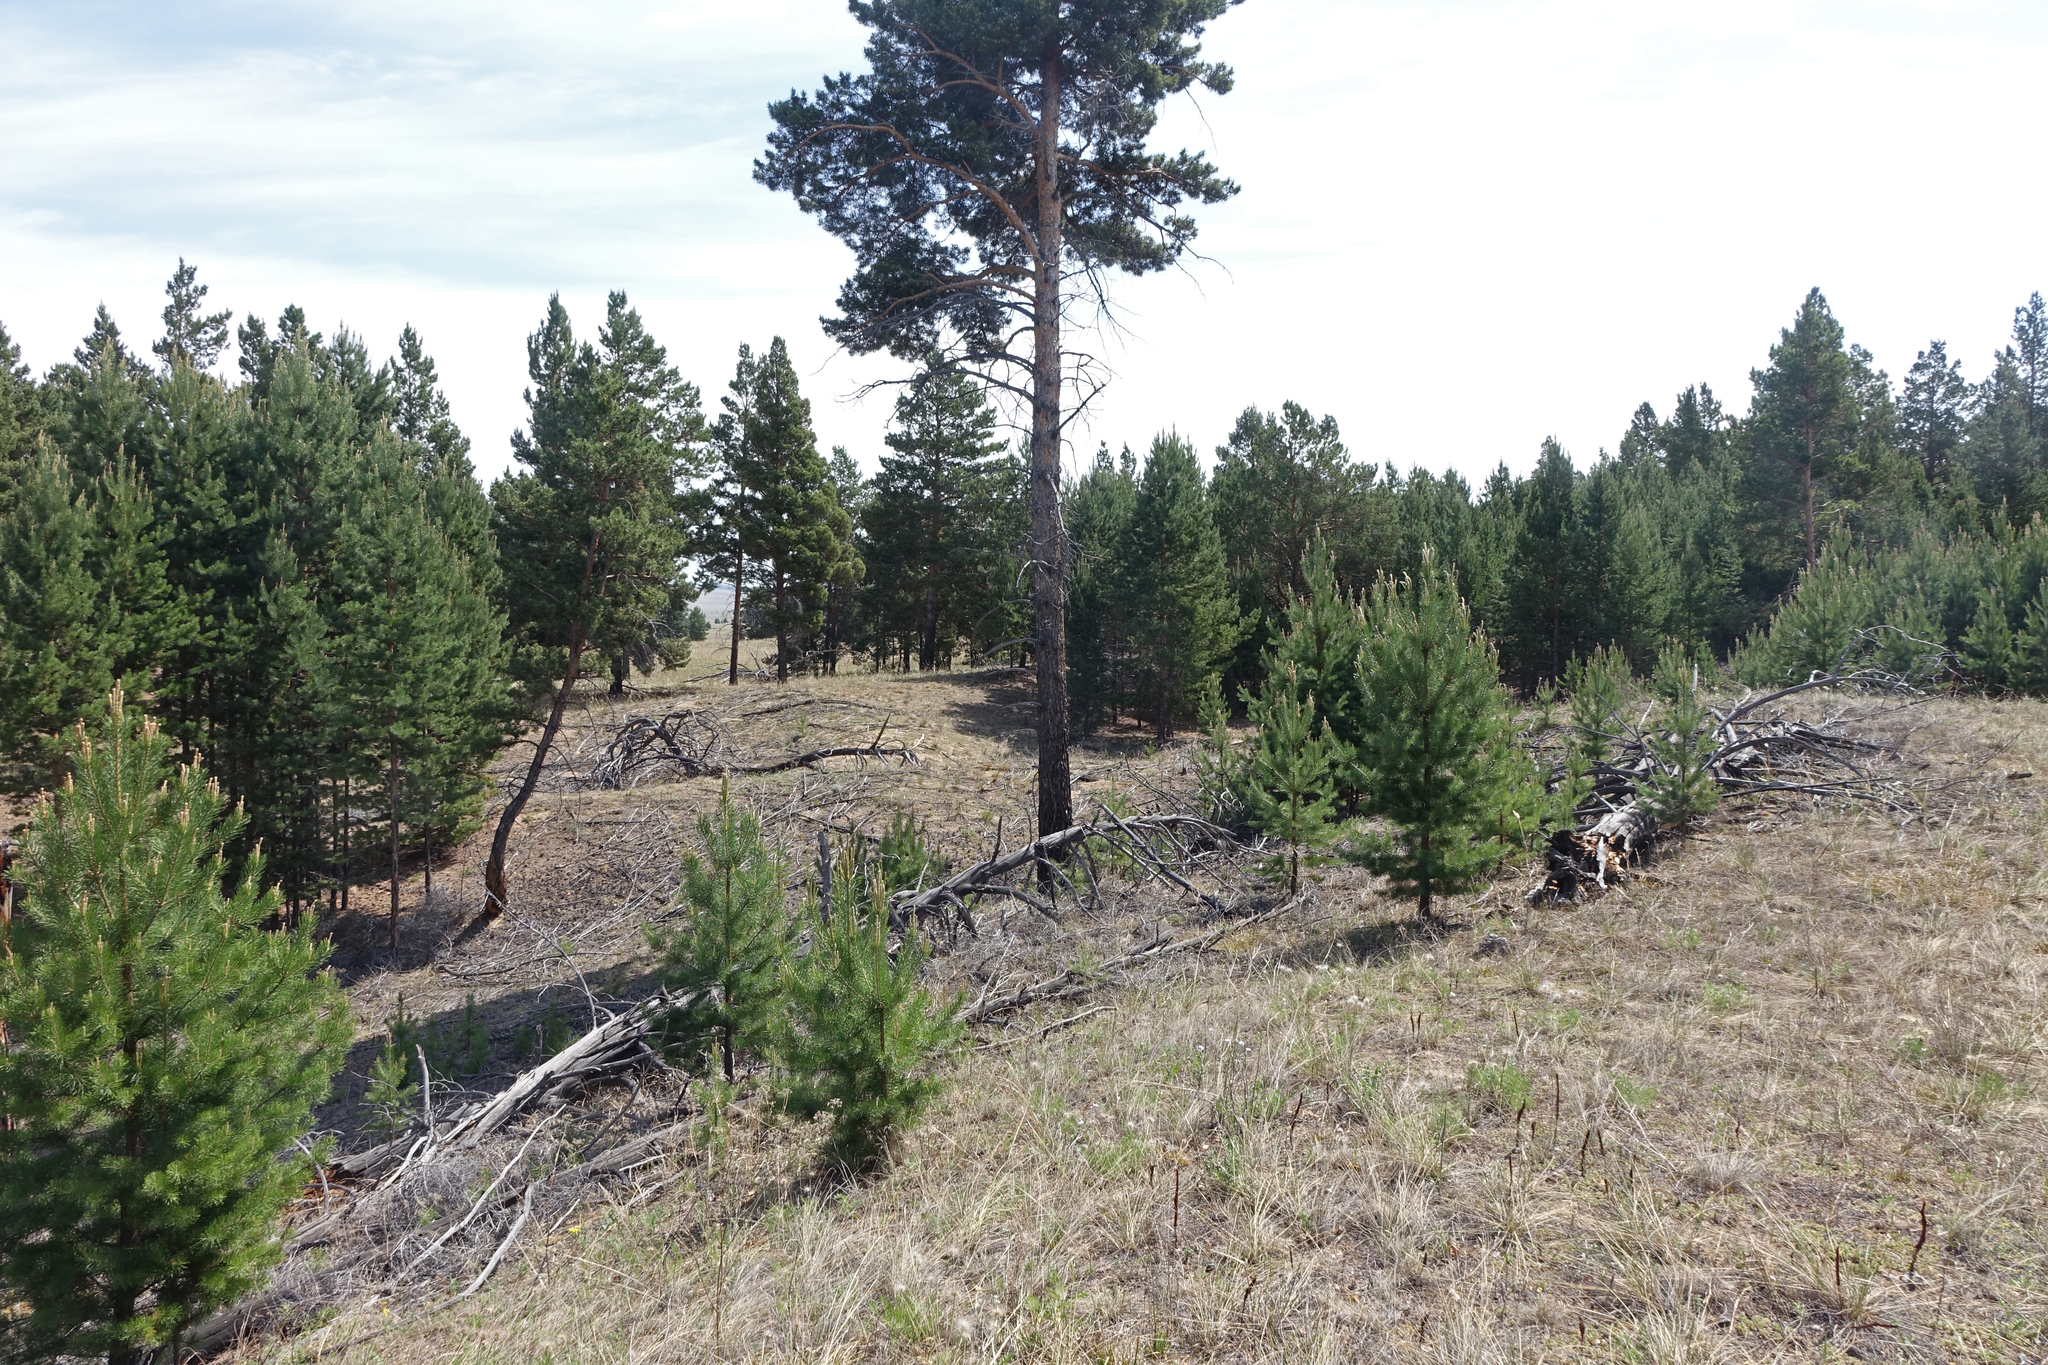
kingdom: Plantae
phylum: Tracheophyta
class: Pinopsida
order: Pinales
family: Pinaceae
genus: Pinus
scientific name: Pinus sylvestris
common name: Scots pine
